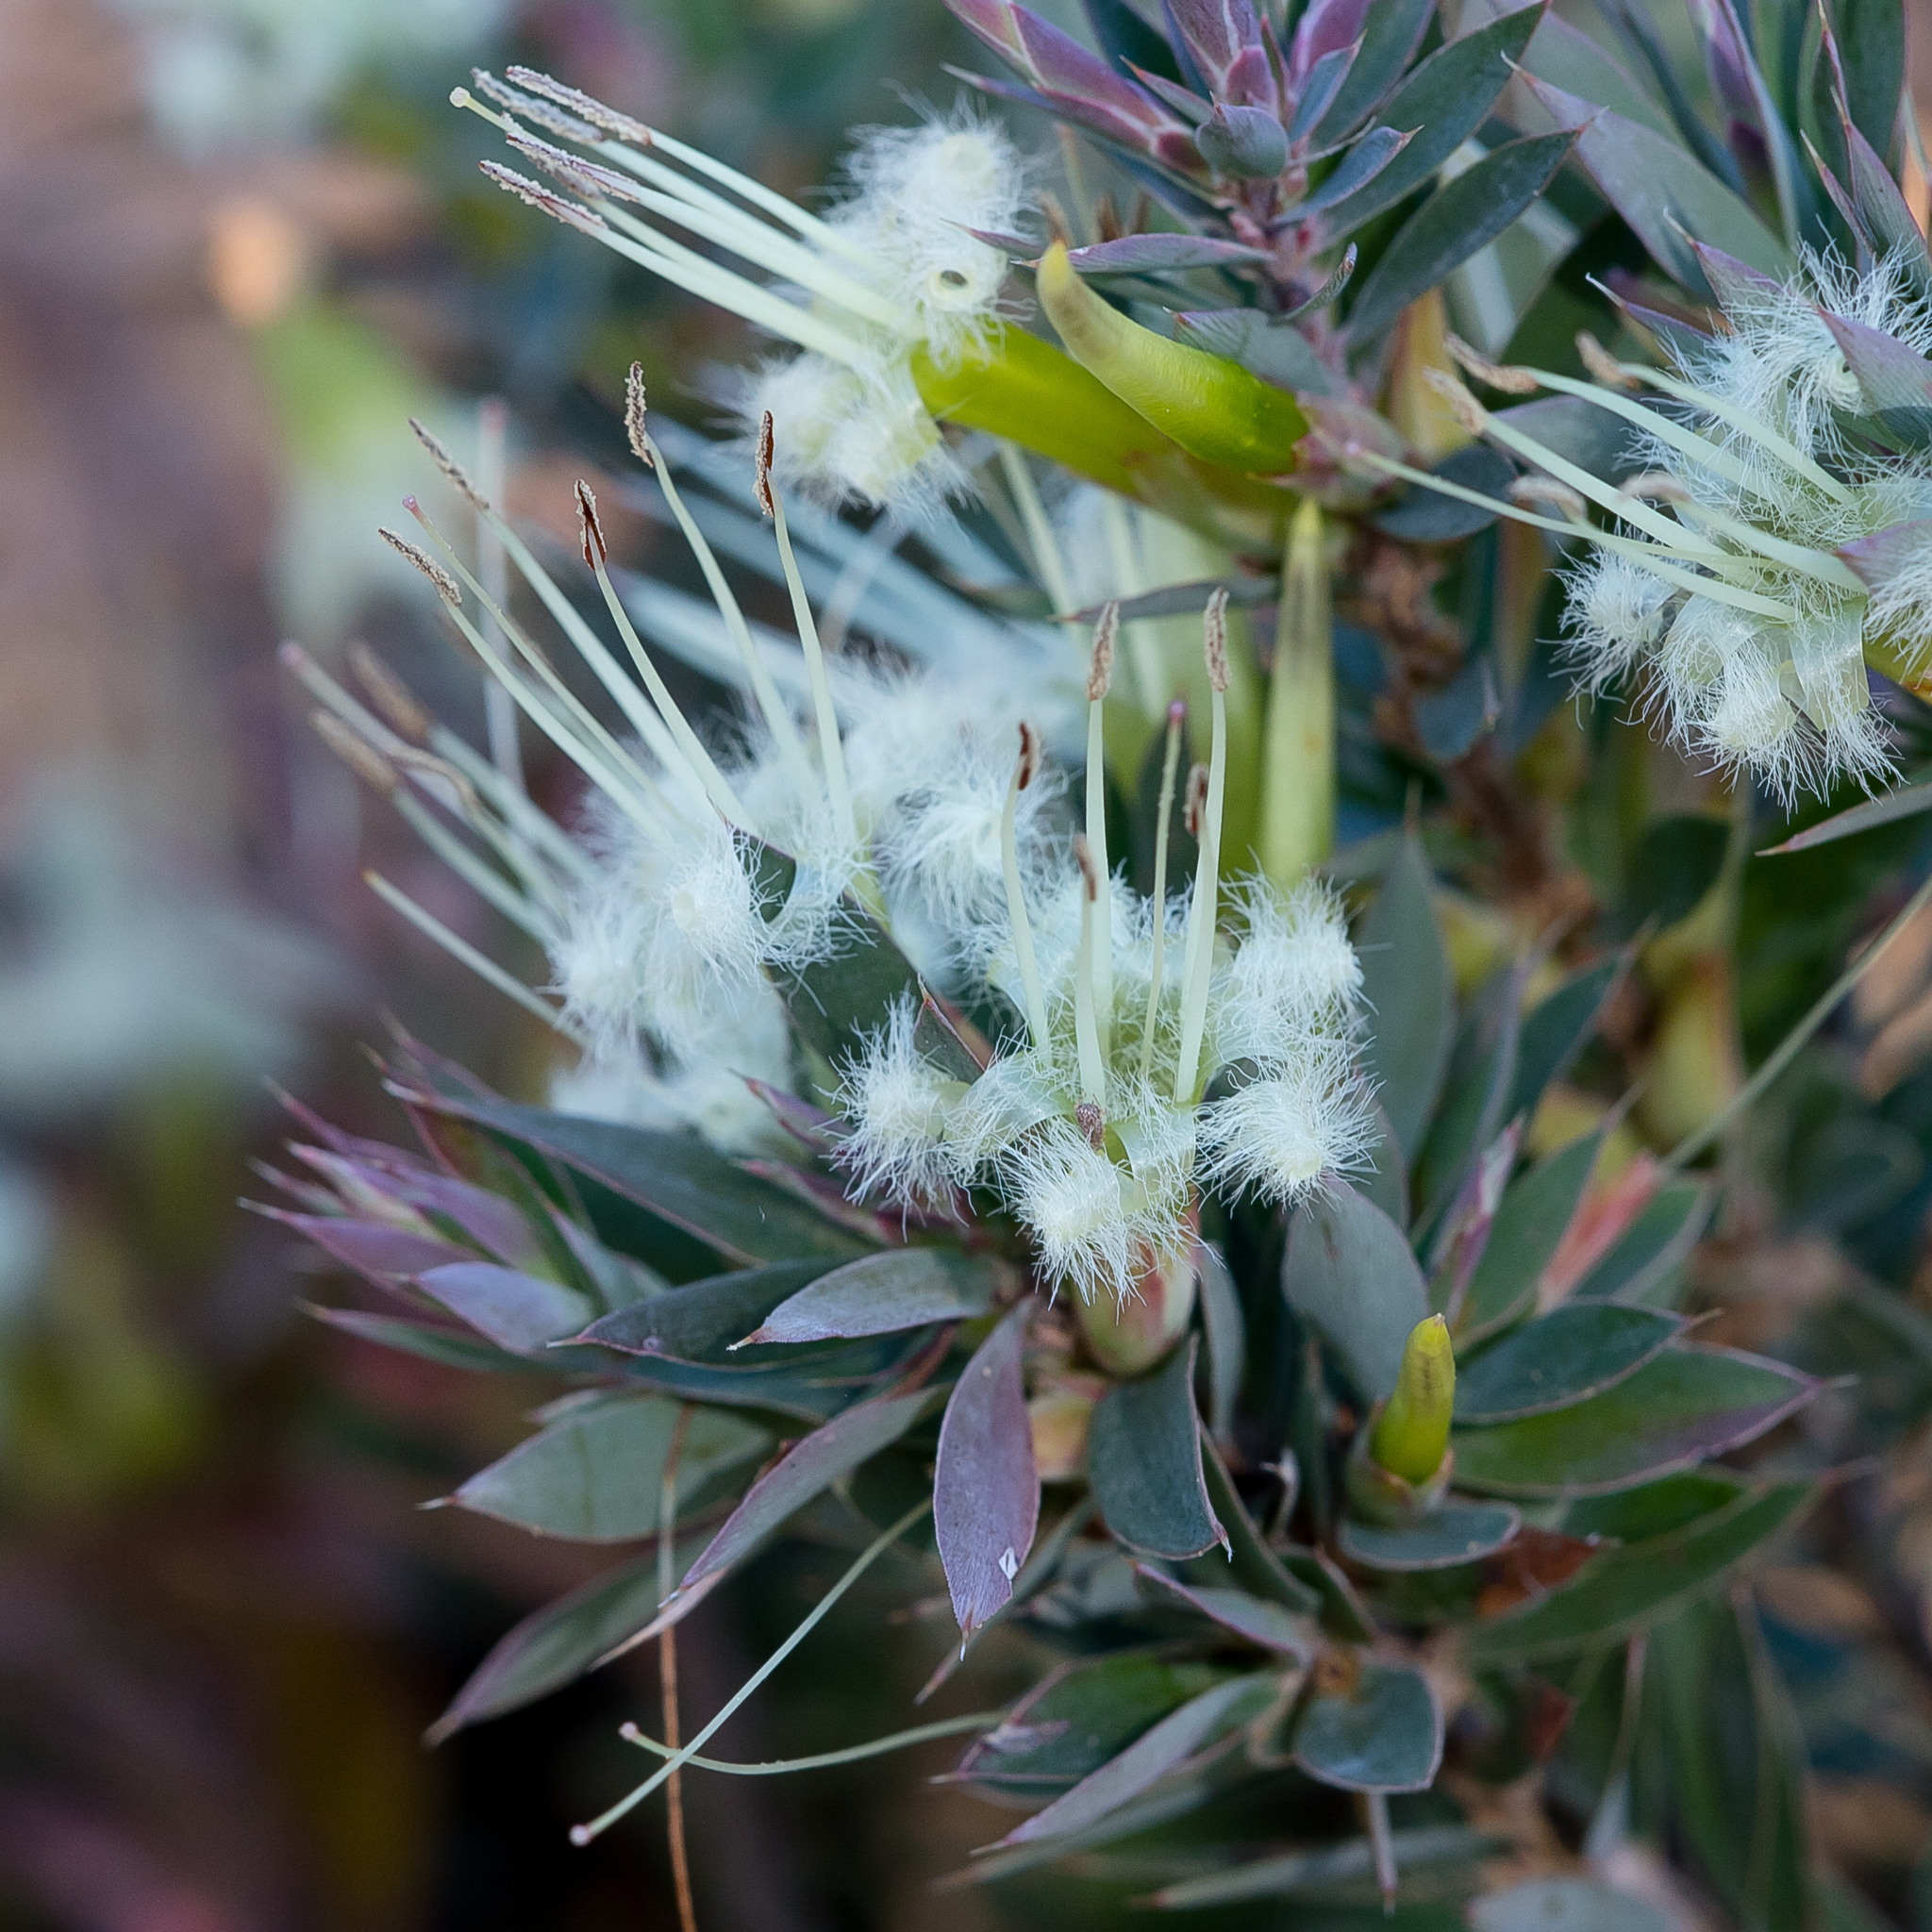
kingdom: Plantae
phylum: Tracheophyta
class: Magnoliopsida
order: Ericales
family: Ericaceae
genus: Styphelia
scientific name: Styphelia adscendens
